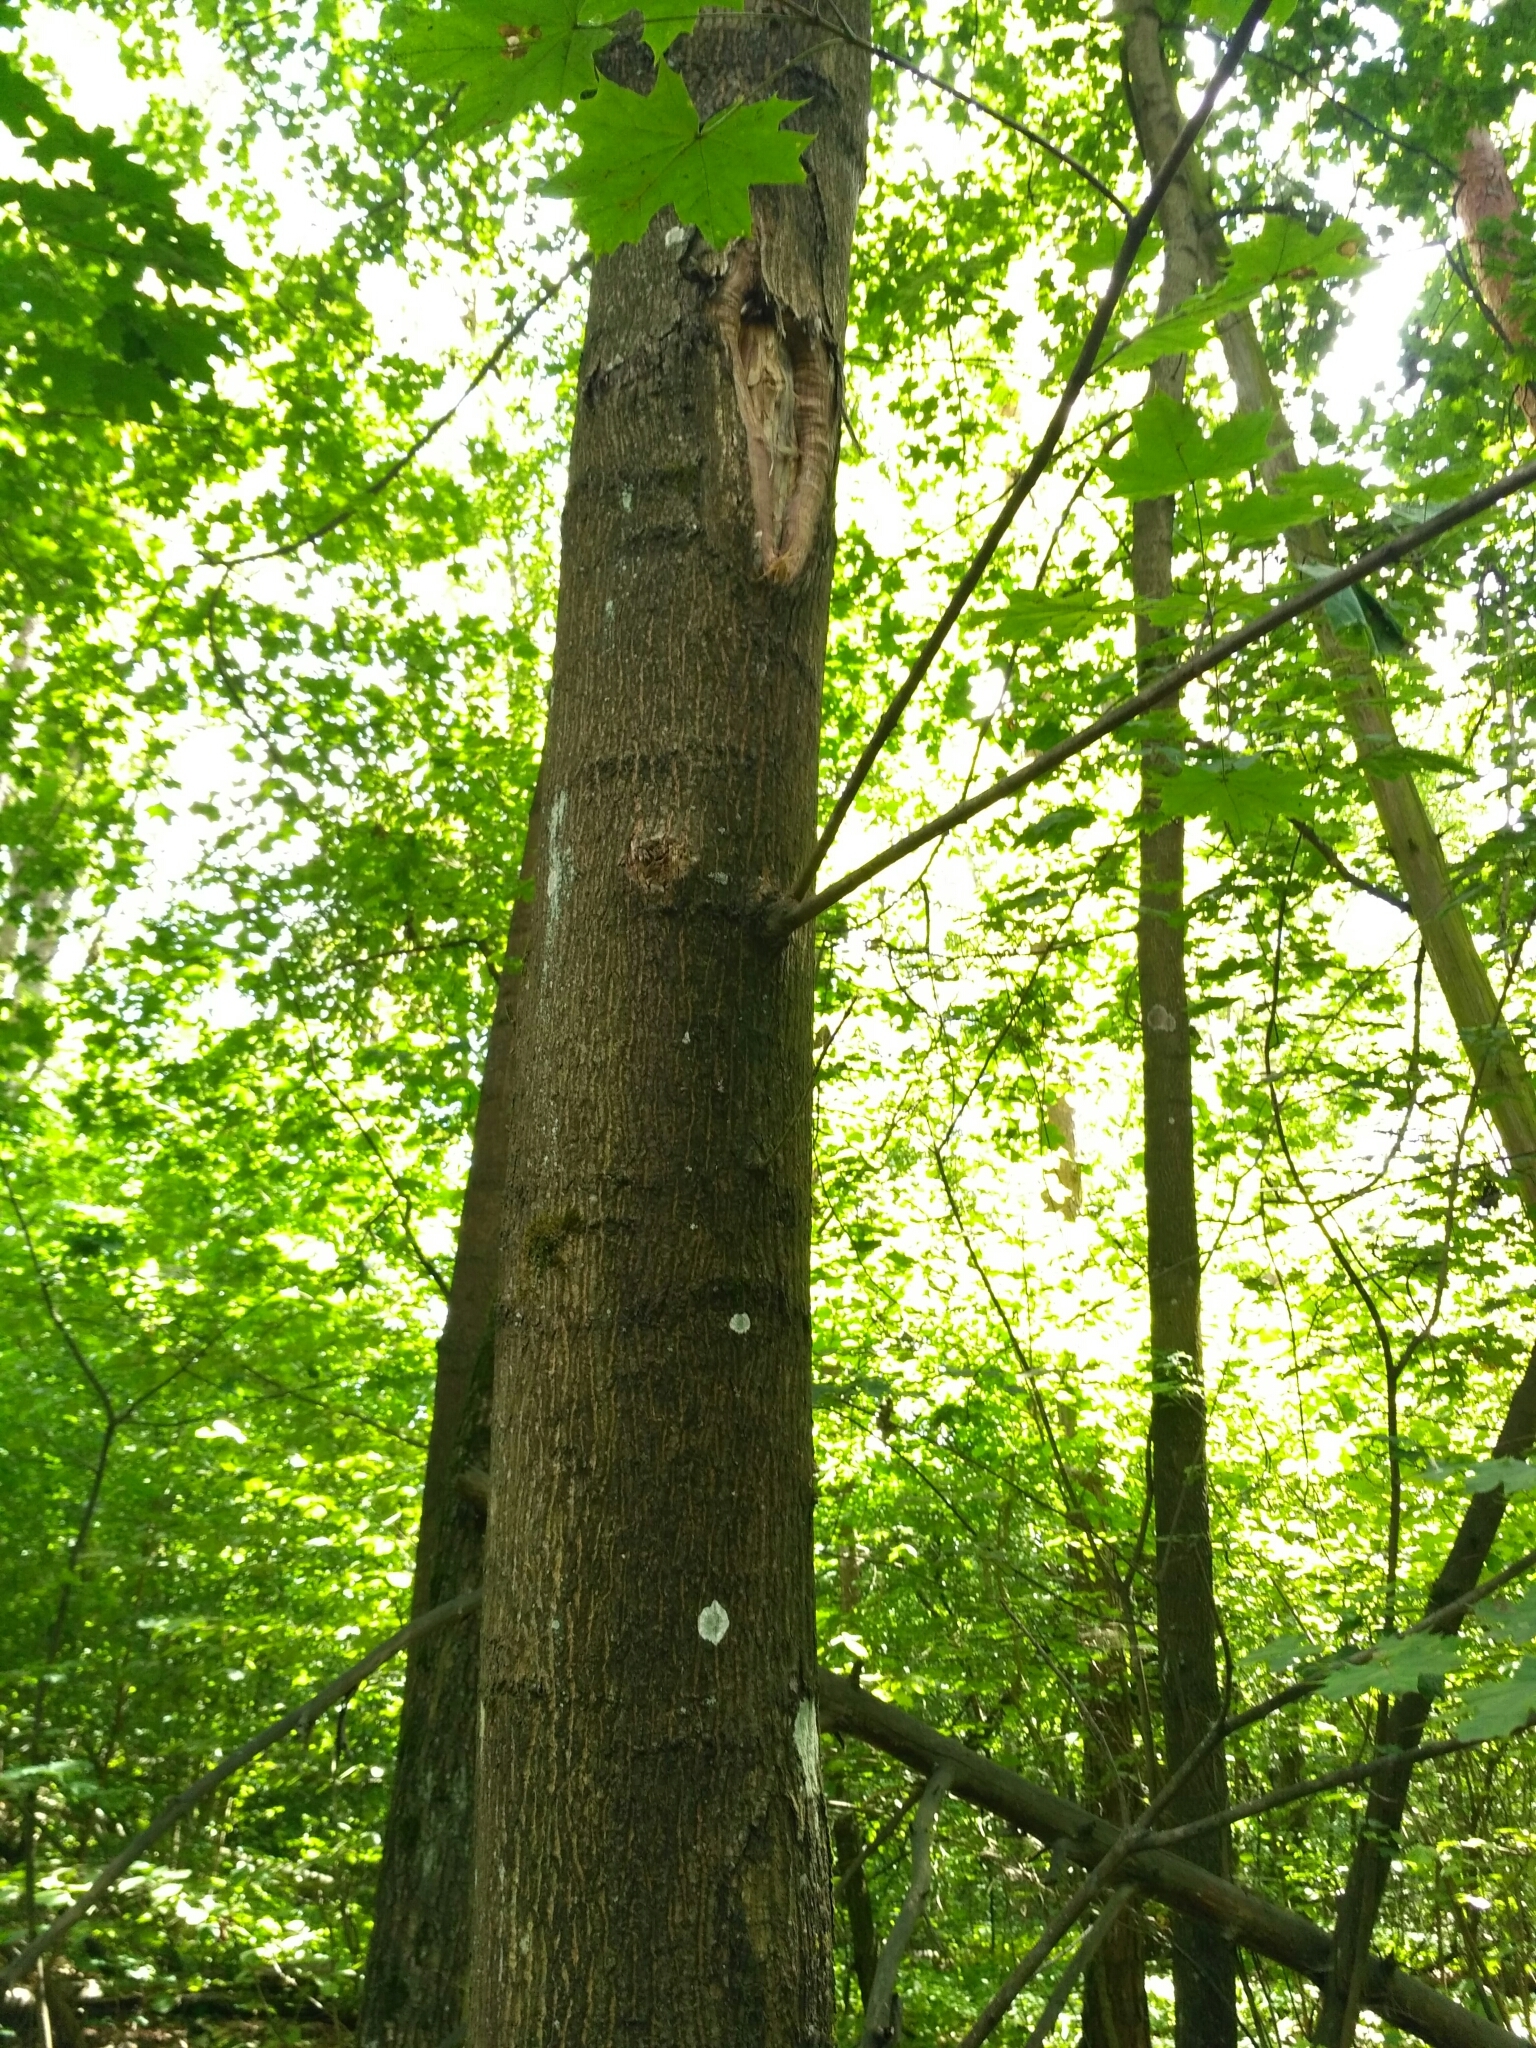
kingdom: Fungi
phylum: Ascomycota
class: Lecanoromycetes
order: Ostropales
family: Phlyctidaceae
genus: Phlyctis
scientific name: Phlyctis argena
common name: Whitewash lichen
